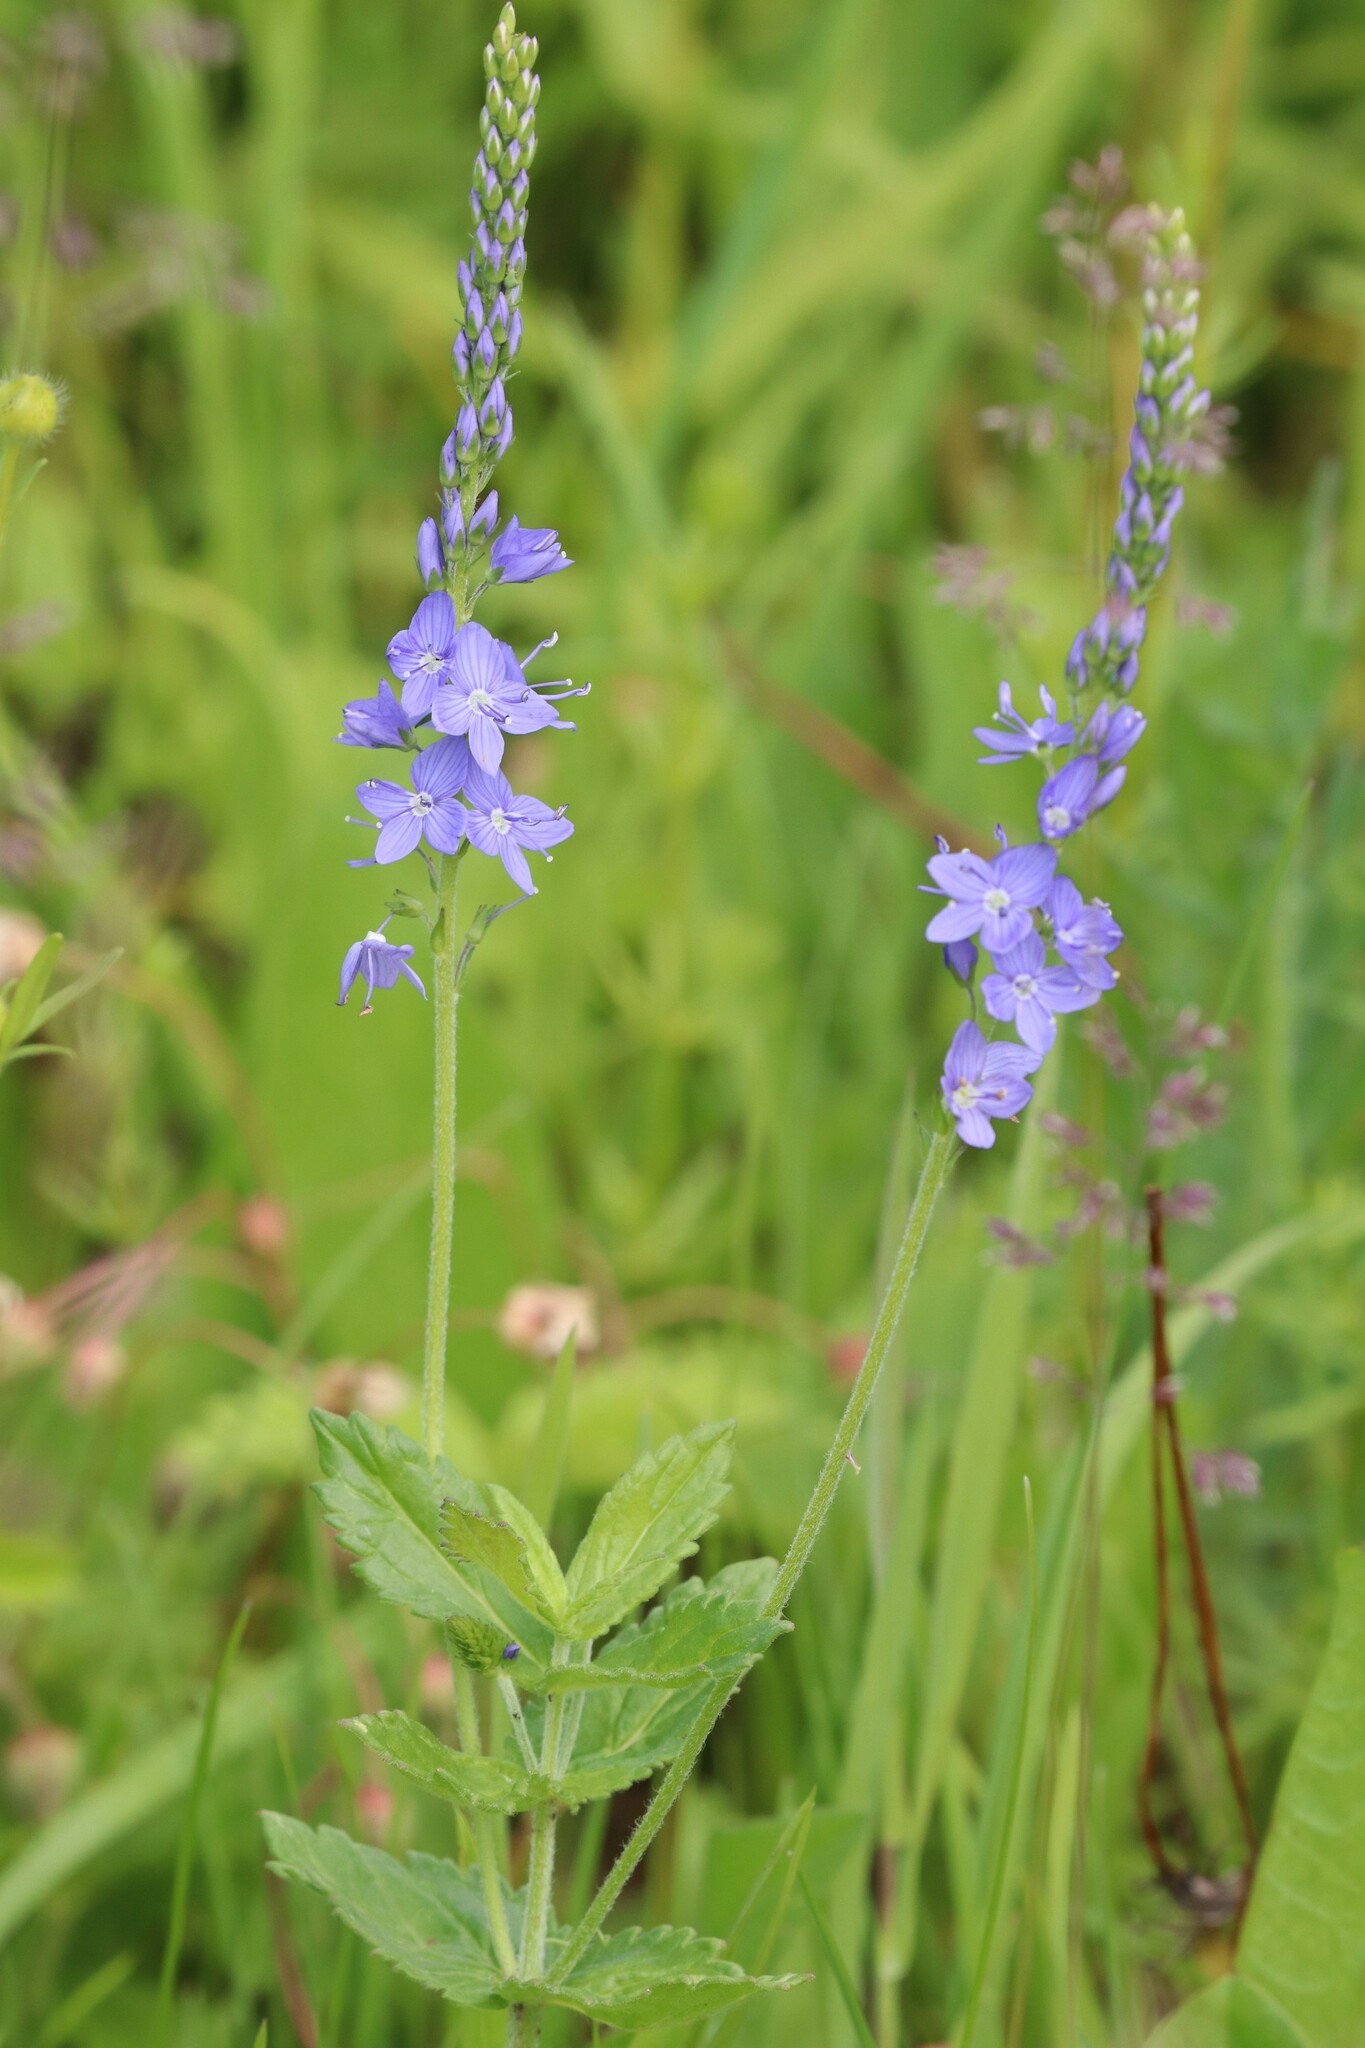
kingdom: Plantae
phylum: Tracheophyta
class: Magnoliopsida
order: Lamiales
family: Plantaginaceae
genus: Veronica
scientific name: Veronica teucrium
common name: Large speedwell
